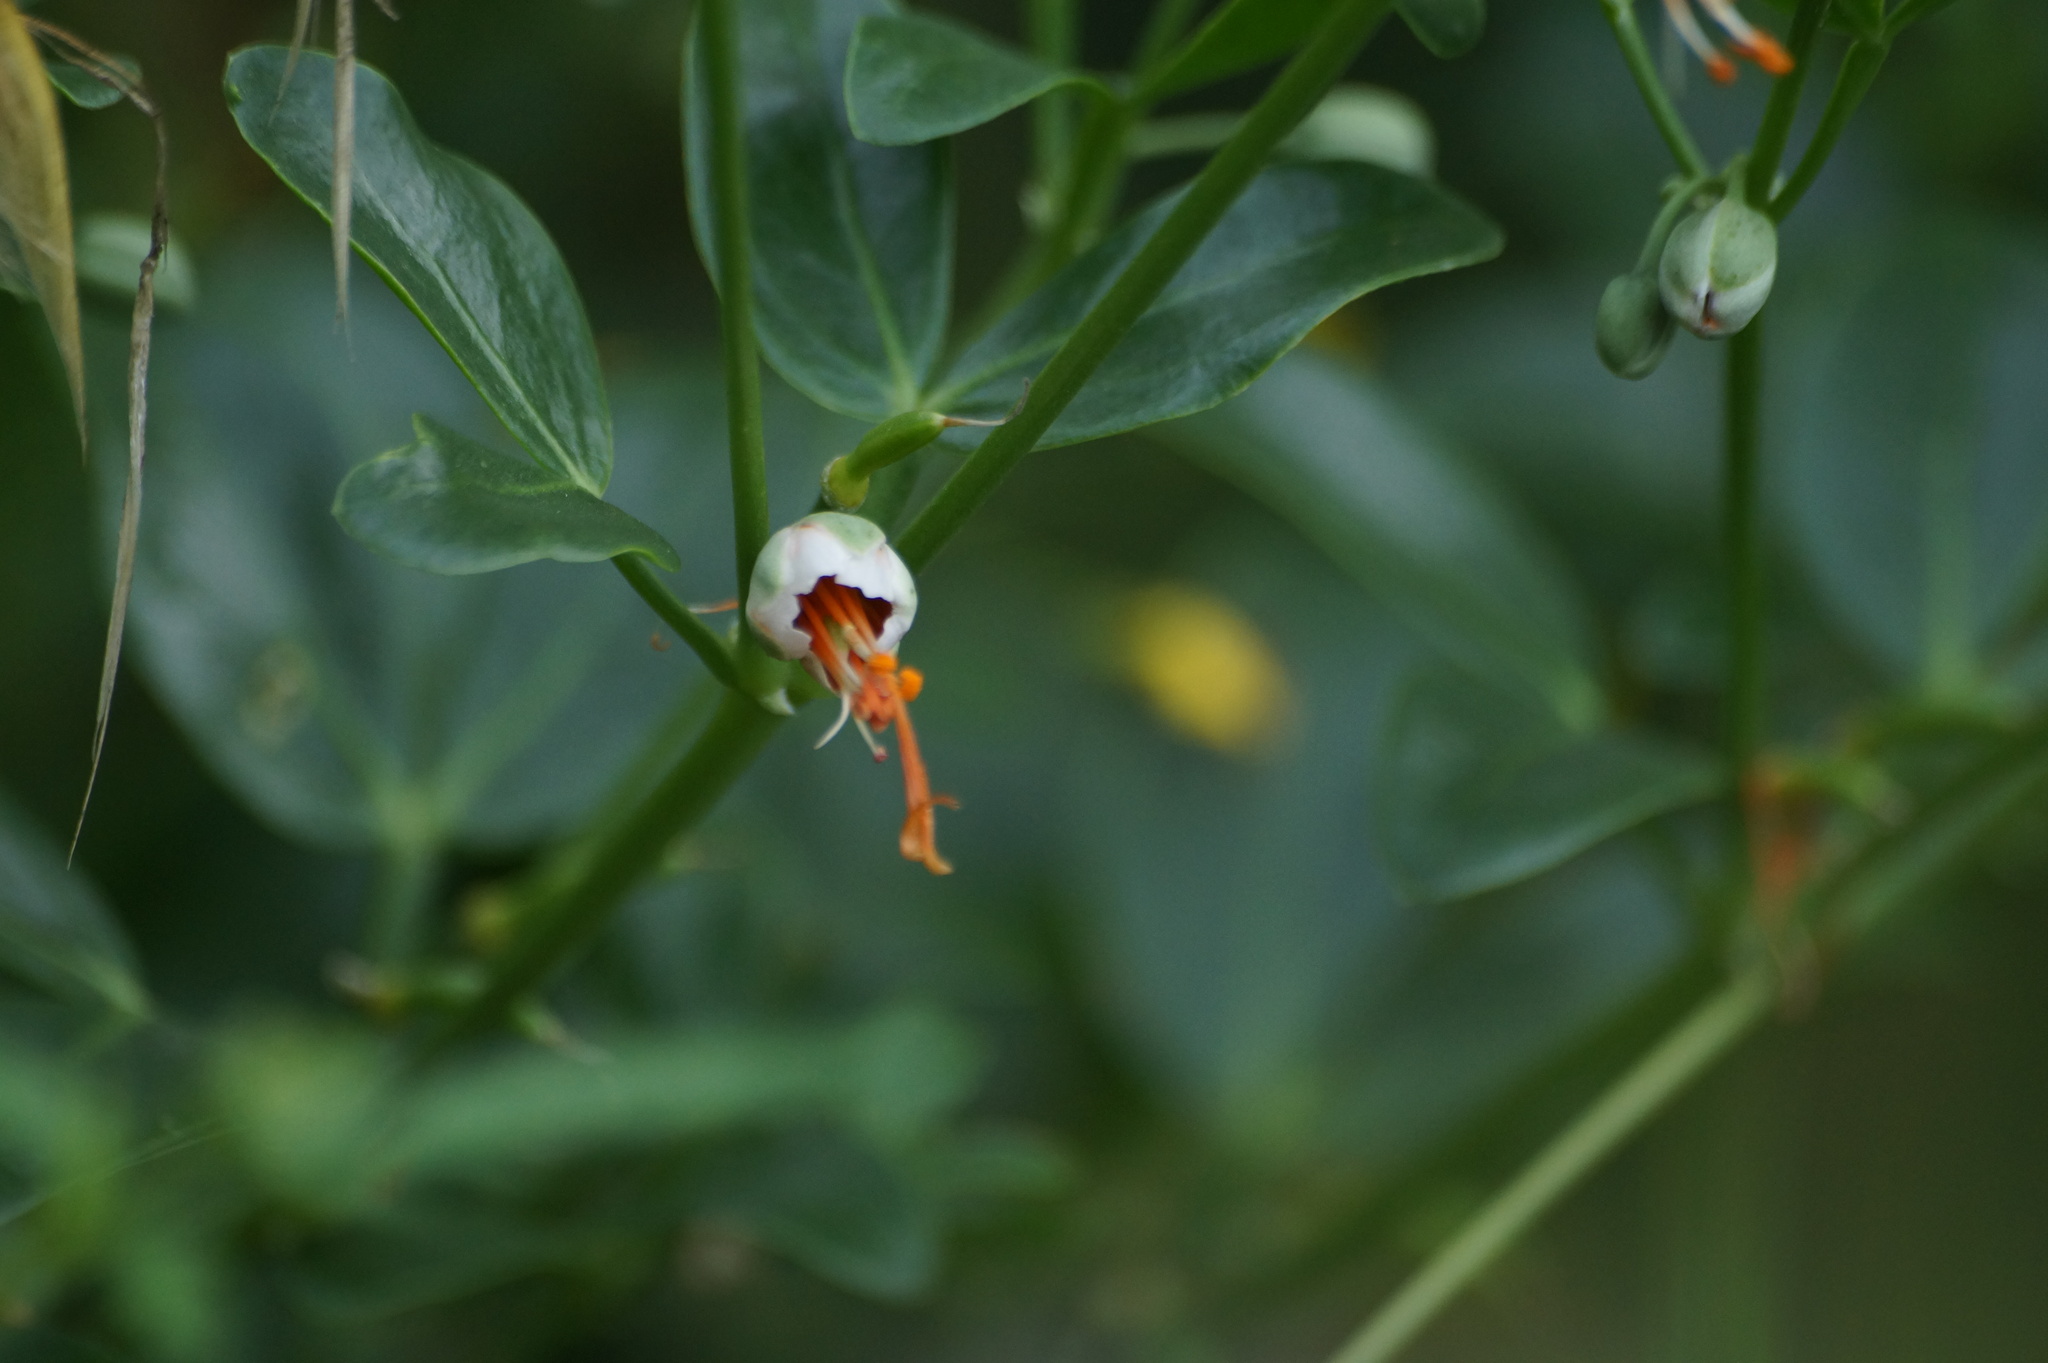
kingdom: Plantae
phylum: Tracheophyta
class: Magnoliopsida
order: Zygophyllales
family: Zygophyllaceae
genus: Zygophyllum
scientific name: Zygophyllum fabago
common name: Syrian beancaper
